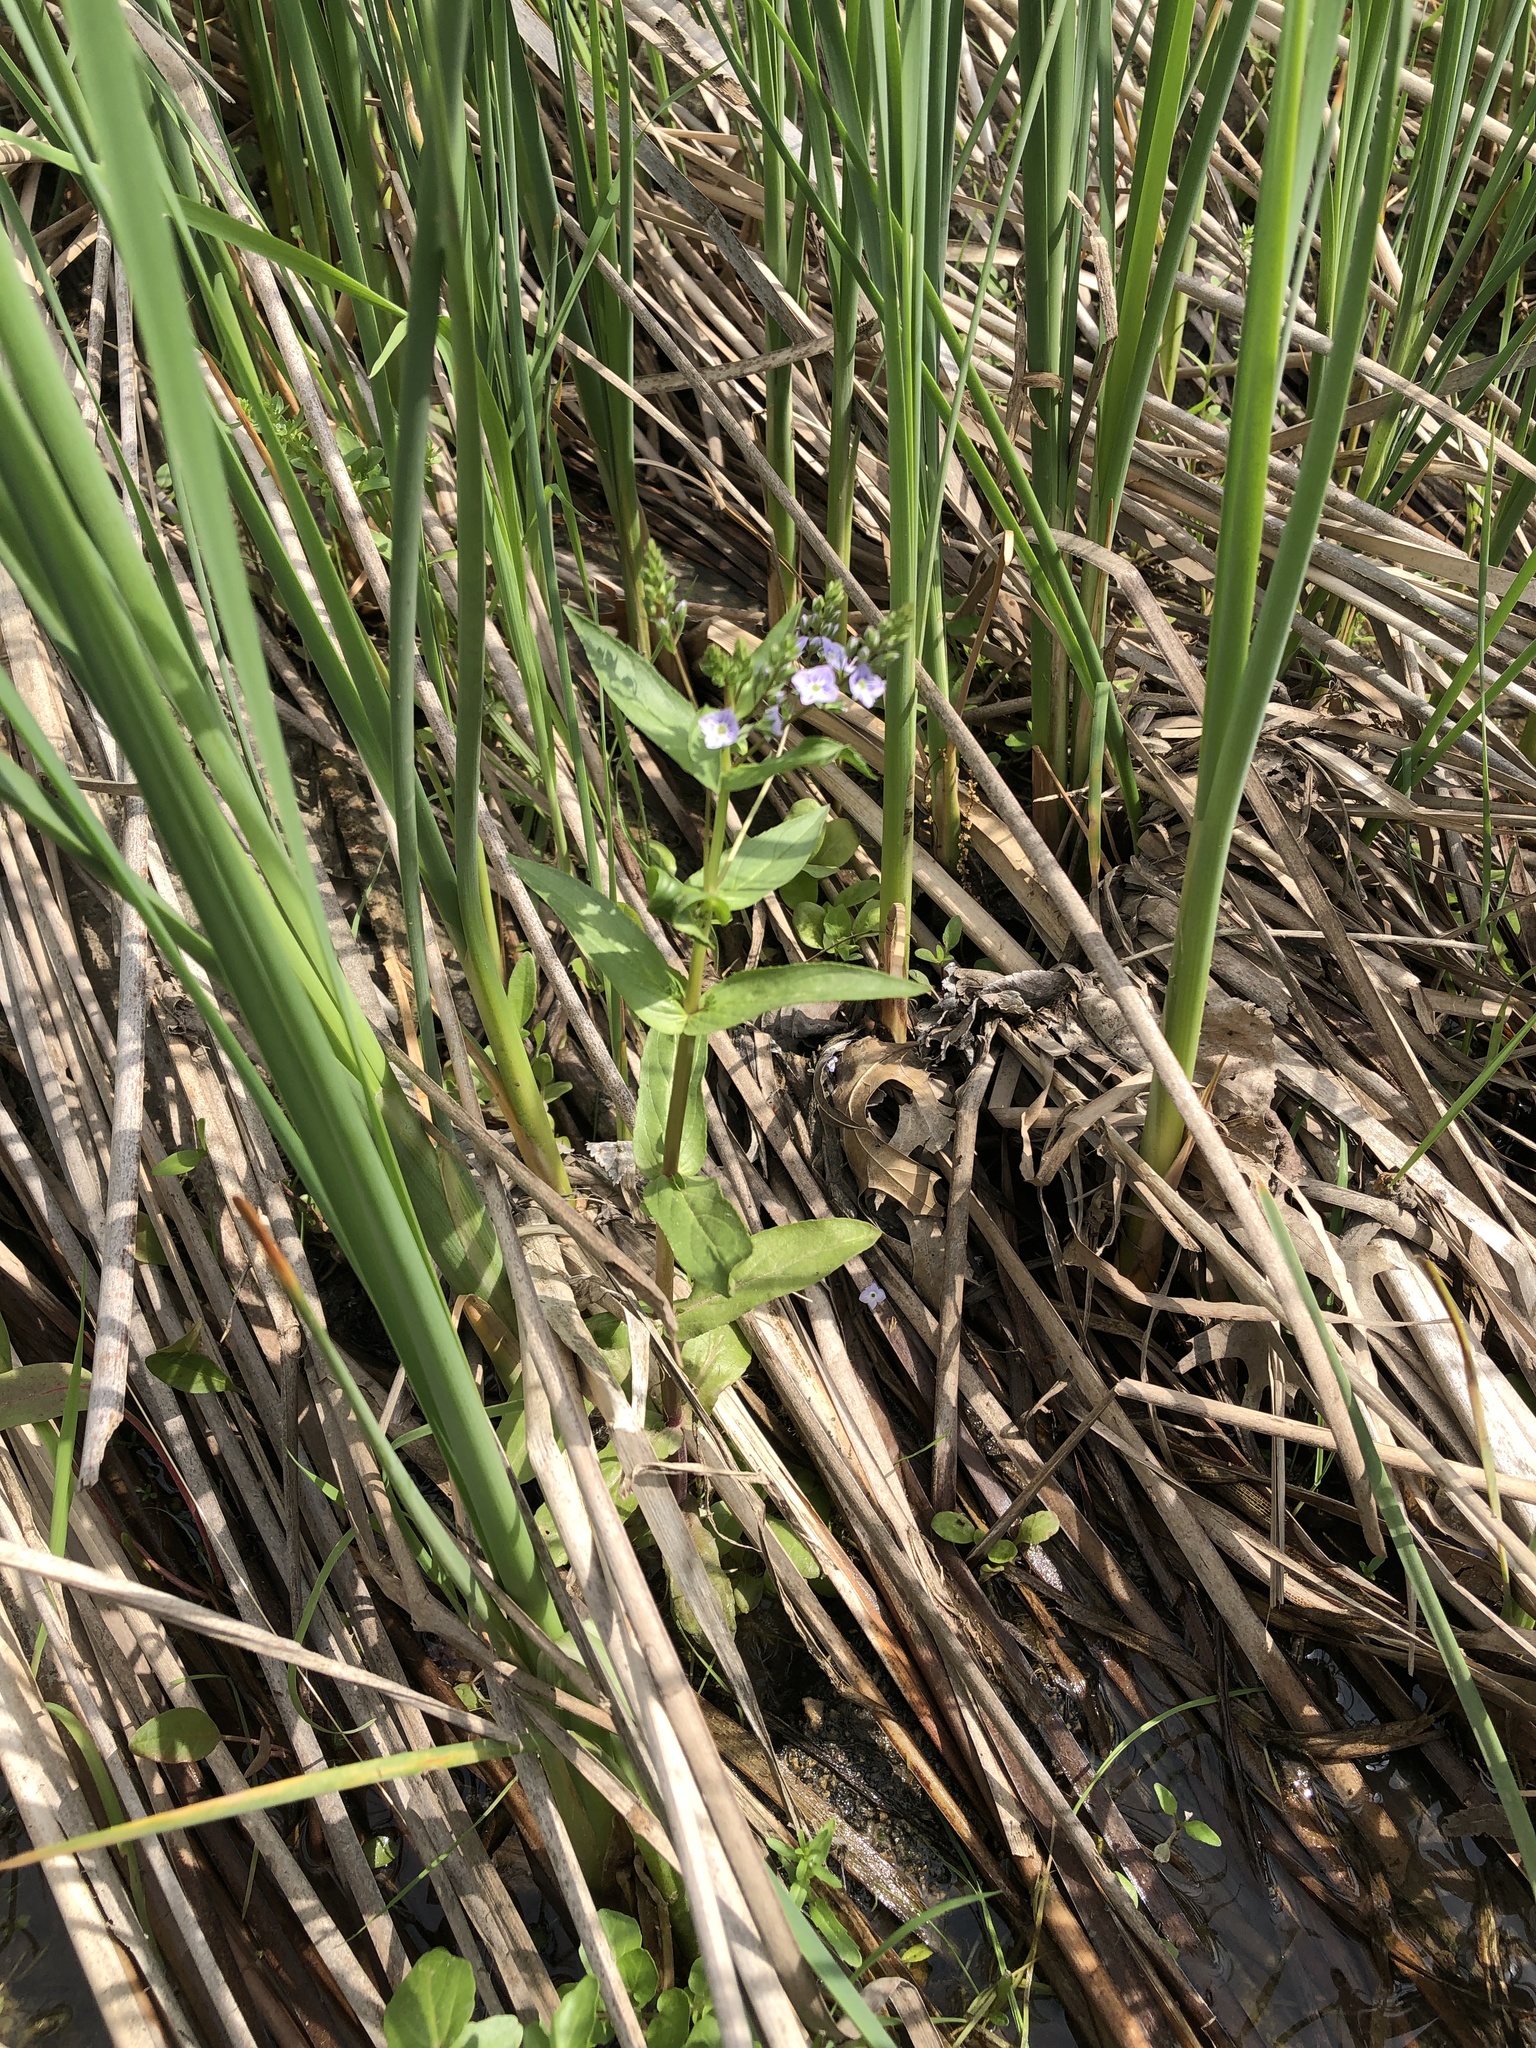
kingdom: Plantae
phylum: Tracheophyta
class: Magnoliopsida
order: Lamiales
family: Plantaginaceae
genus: Veronica
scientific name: Veronica anagallis-aquatica
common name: Water speedwell
